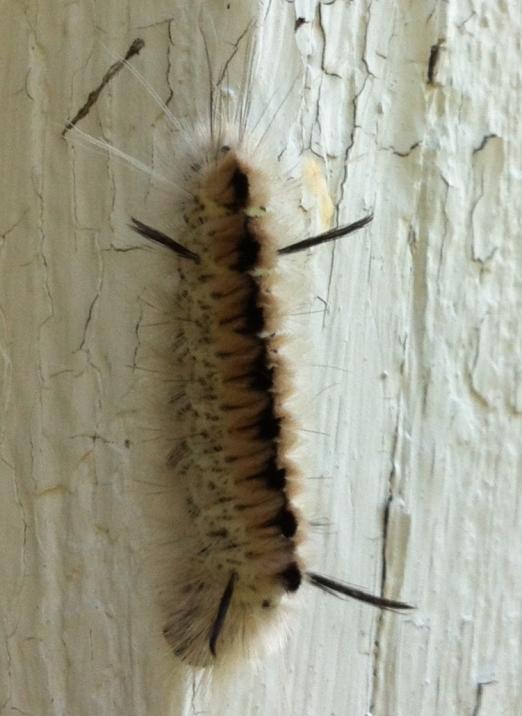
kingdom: Animalia
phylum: Arthropoda
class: Insecta
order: Lepidoptera
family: Erebidae
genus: Lophocampa
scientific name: Lophocampa caryae
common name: Hickory tussock moth
